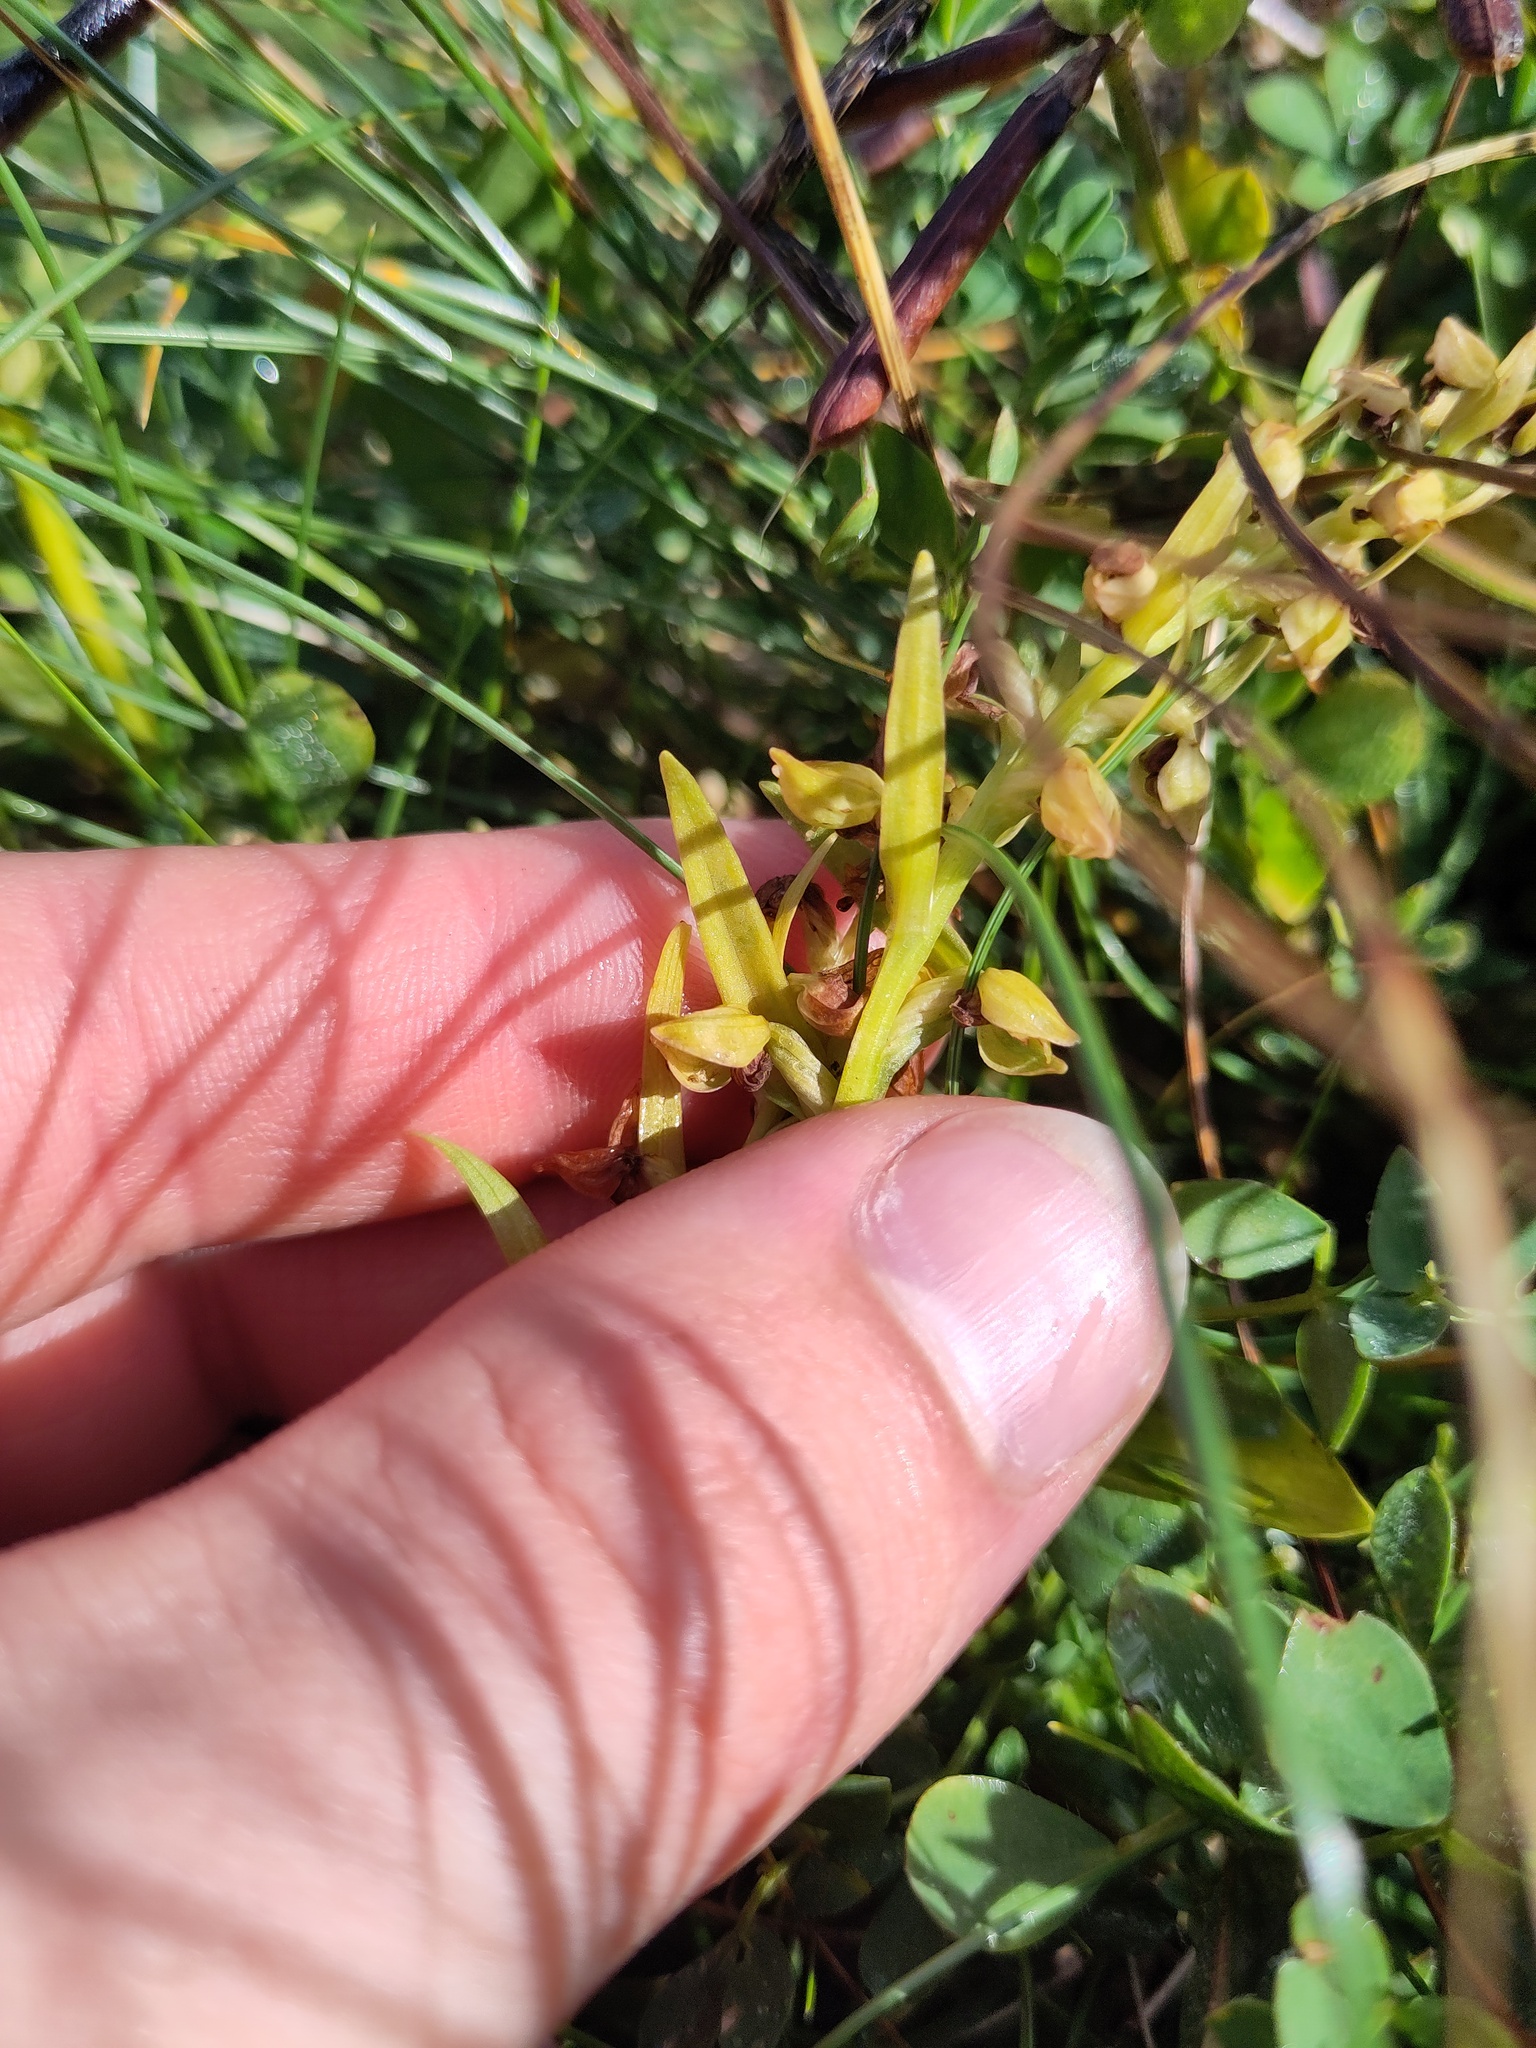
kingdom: Plantae
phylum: Tracheophyta
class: Liliopsida
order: Asparagales
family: Orchidaceae
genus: Dactylorhiza
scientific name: Dactylorhiza viridis
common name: Longbract frog orchid
